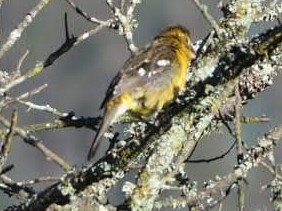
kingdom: Animalia
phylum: Chordata
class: Aves
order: Passeriformes
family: Cardinalidae
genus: Pheucticus
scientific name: Pheucticus chrysogaster
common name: Golden grosbeak
